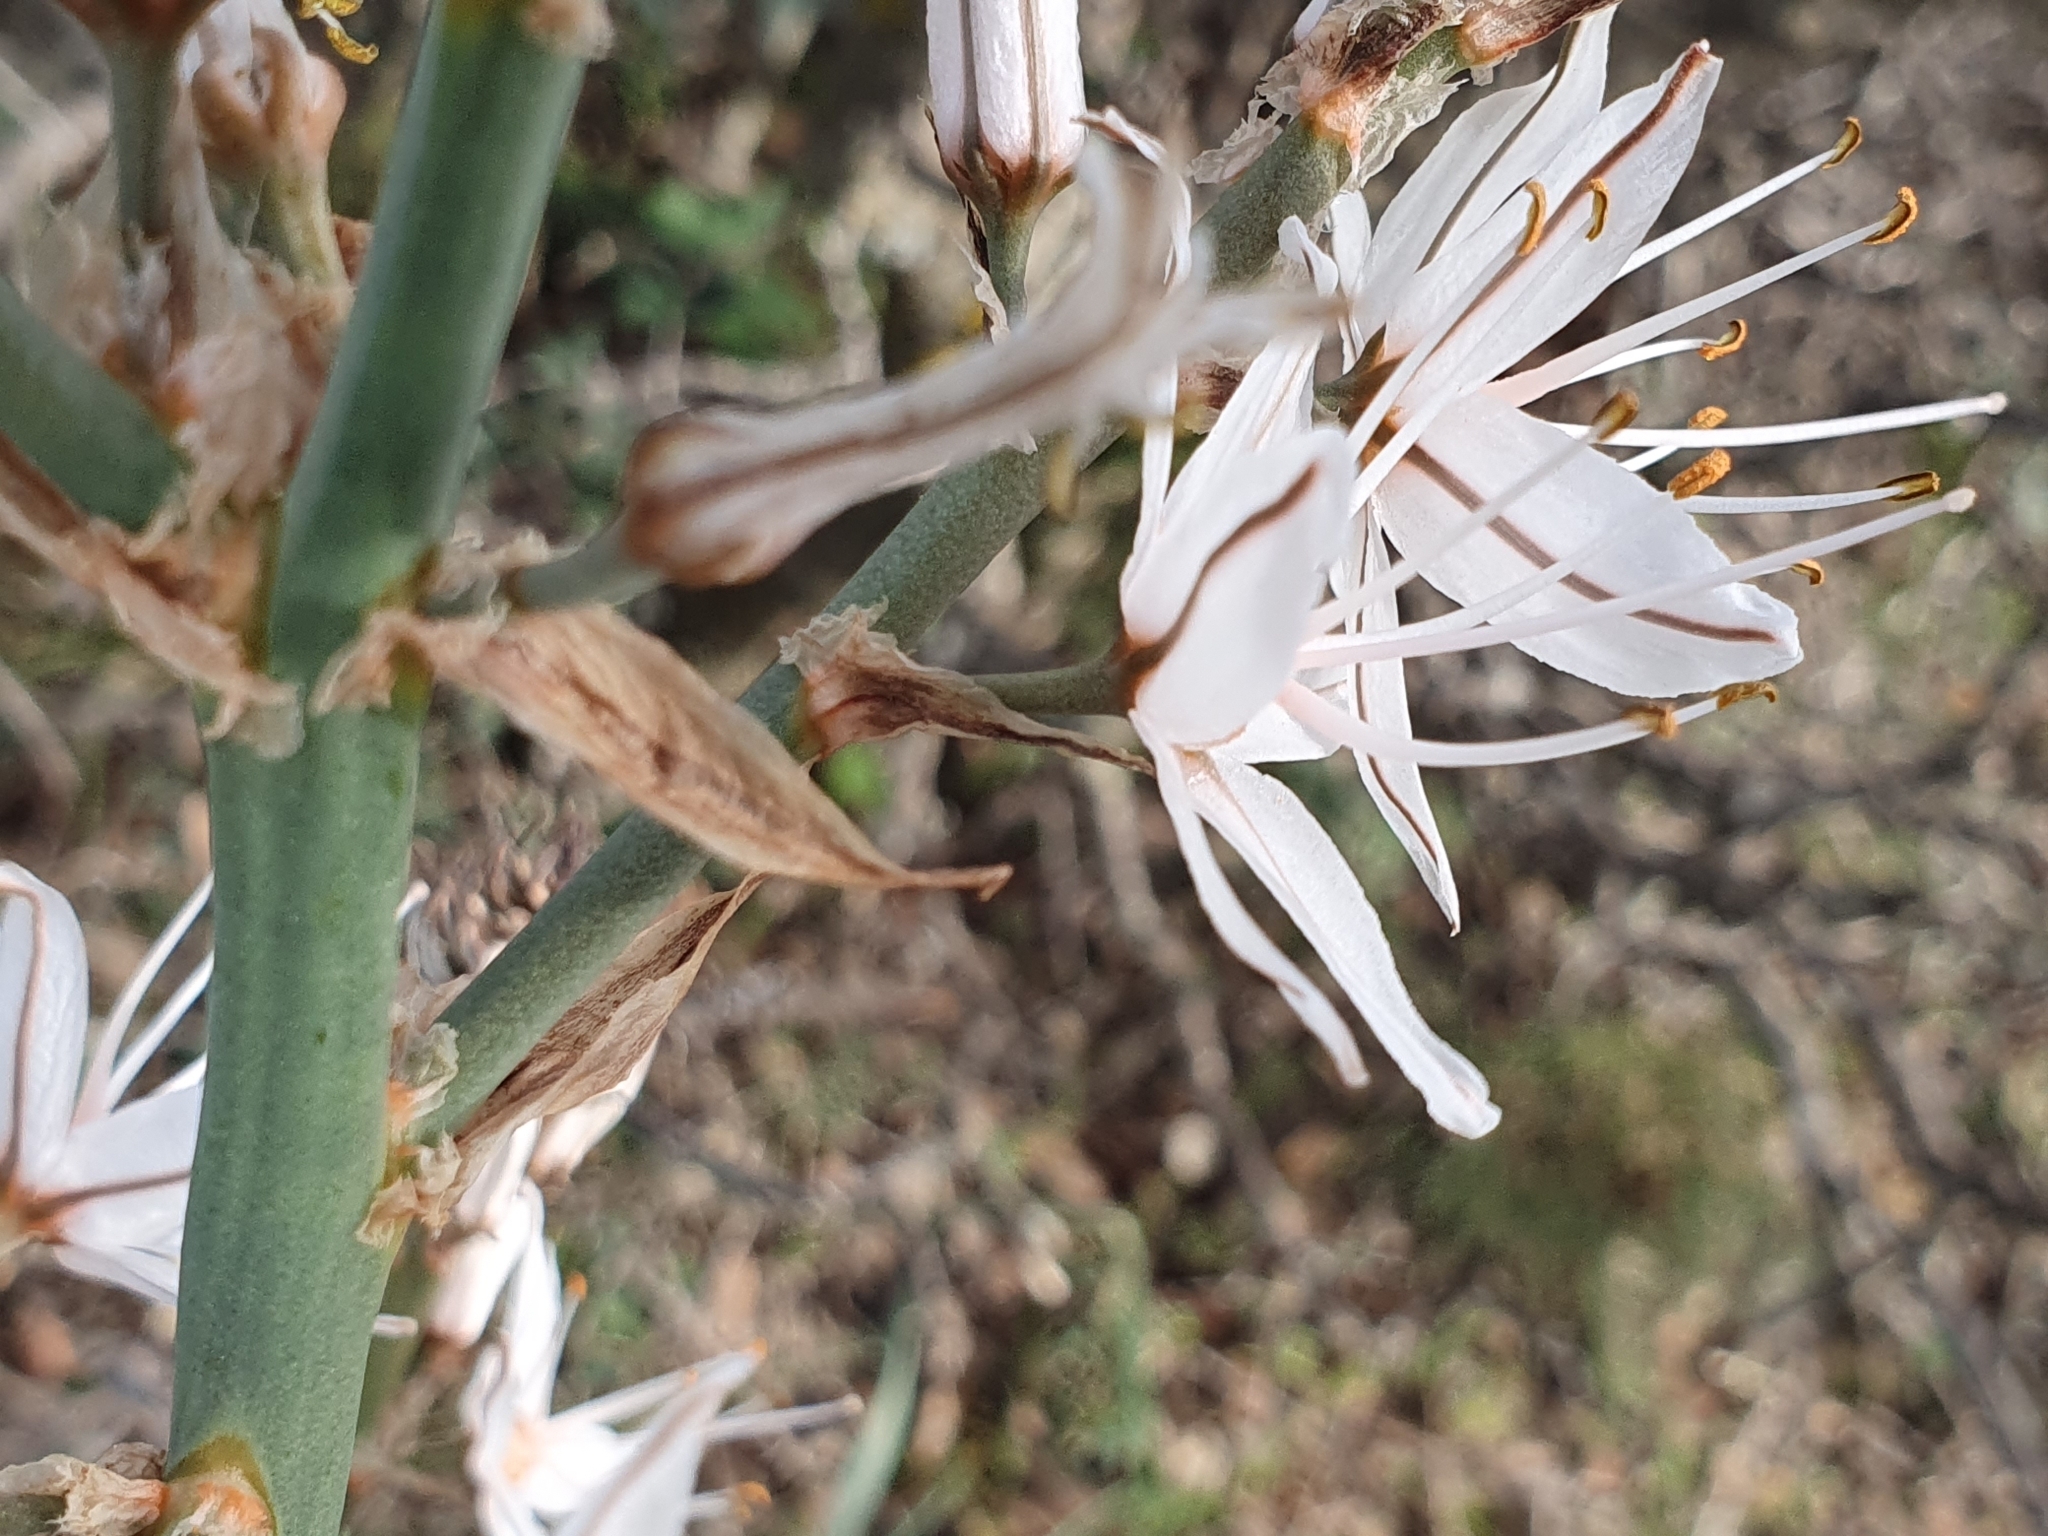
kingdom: Plantae
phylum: Tracheophyta
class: Liliopsida
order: Asparagales
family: Asphodelaceae
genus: Asphodelus
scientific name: Asphodelus ramosus
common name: Silverrod
